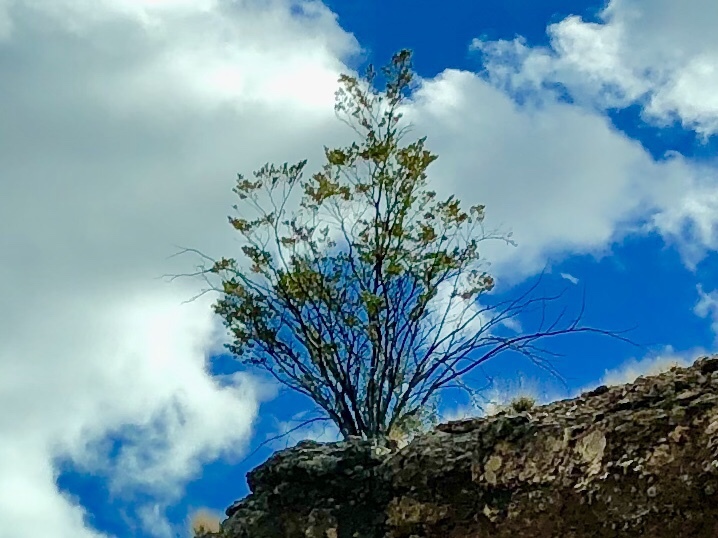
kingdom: Plantae
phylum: Tracheophyta
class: Magnoliopsida
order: Zygophyllales
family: Zygophyllaceae
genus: Larrea
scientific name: Larrea tridentata
